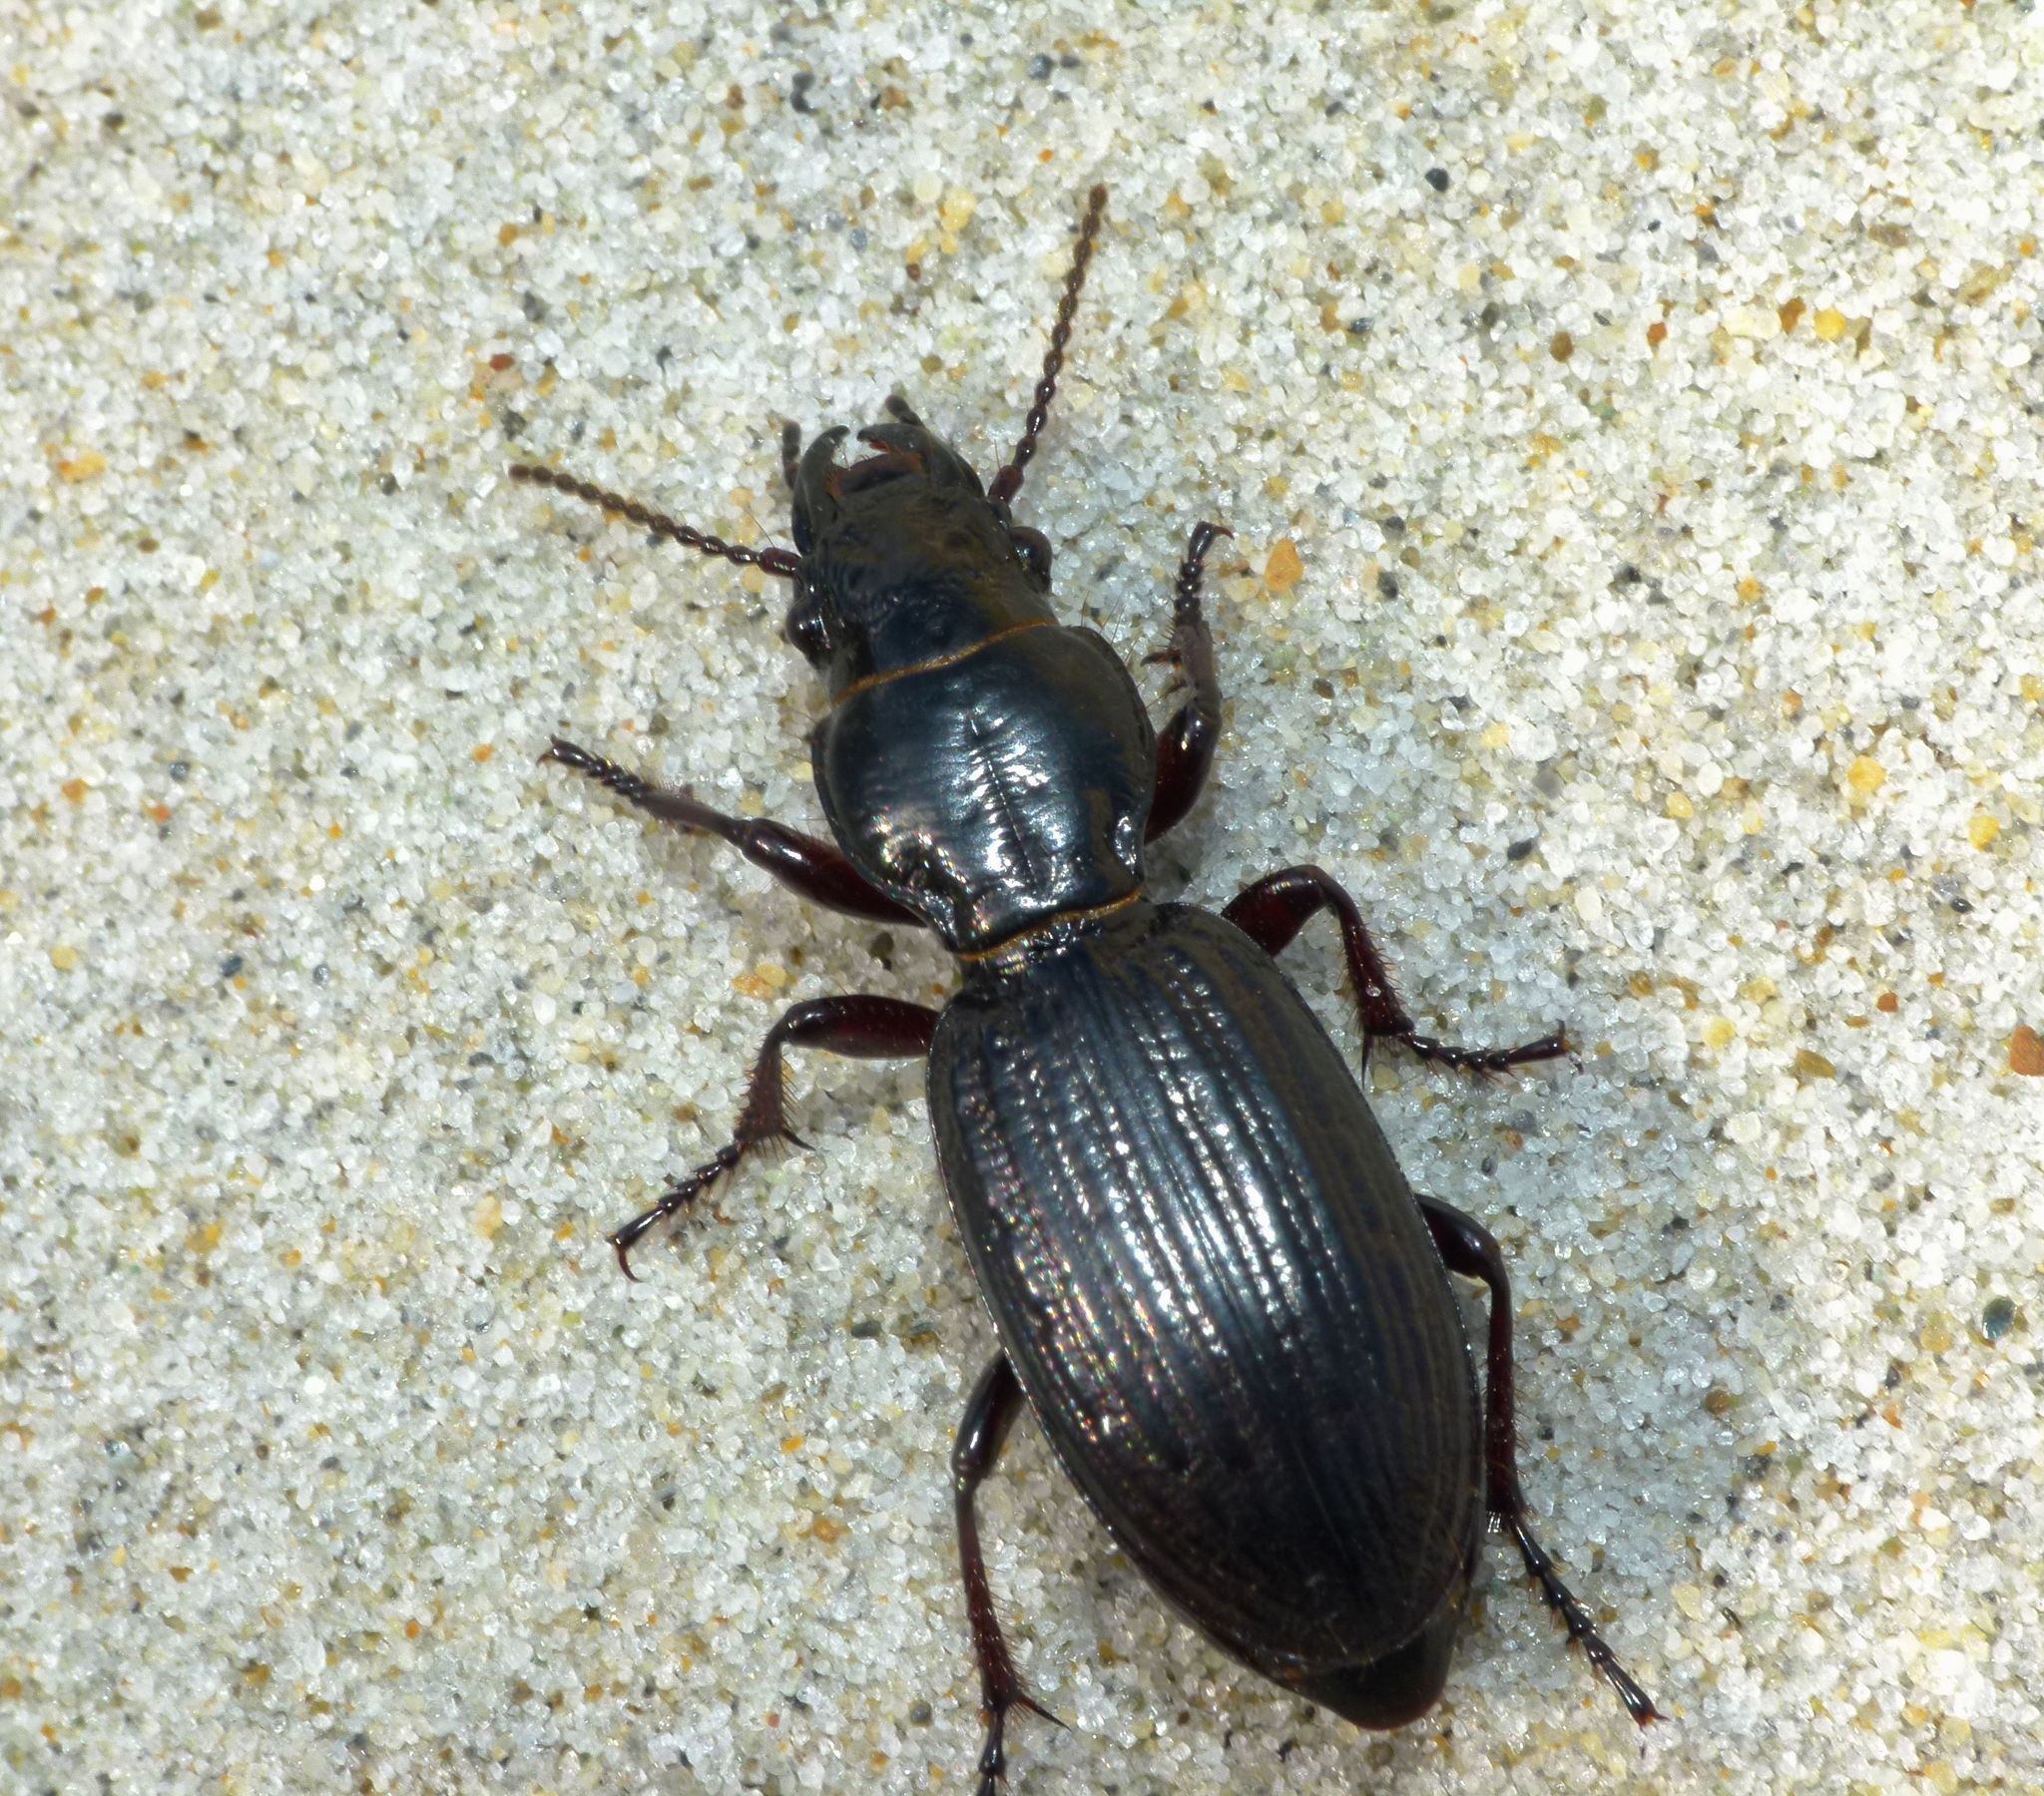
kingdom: Animalia
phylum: Arthropoda
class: Insecta
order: Coleoptera
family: Carabidae
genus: Mecodema
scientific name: Mecodema alternans
